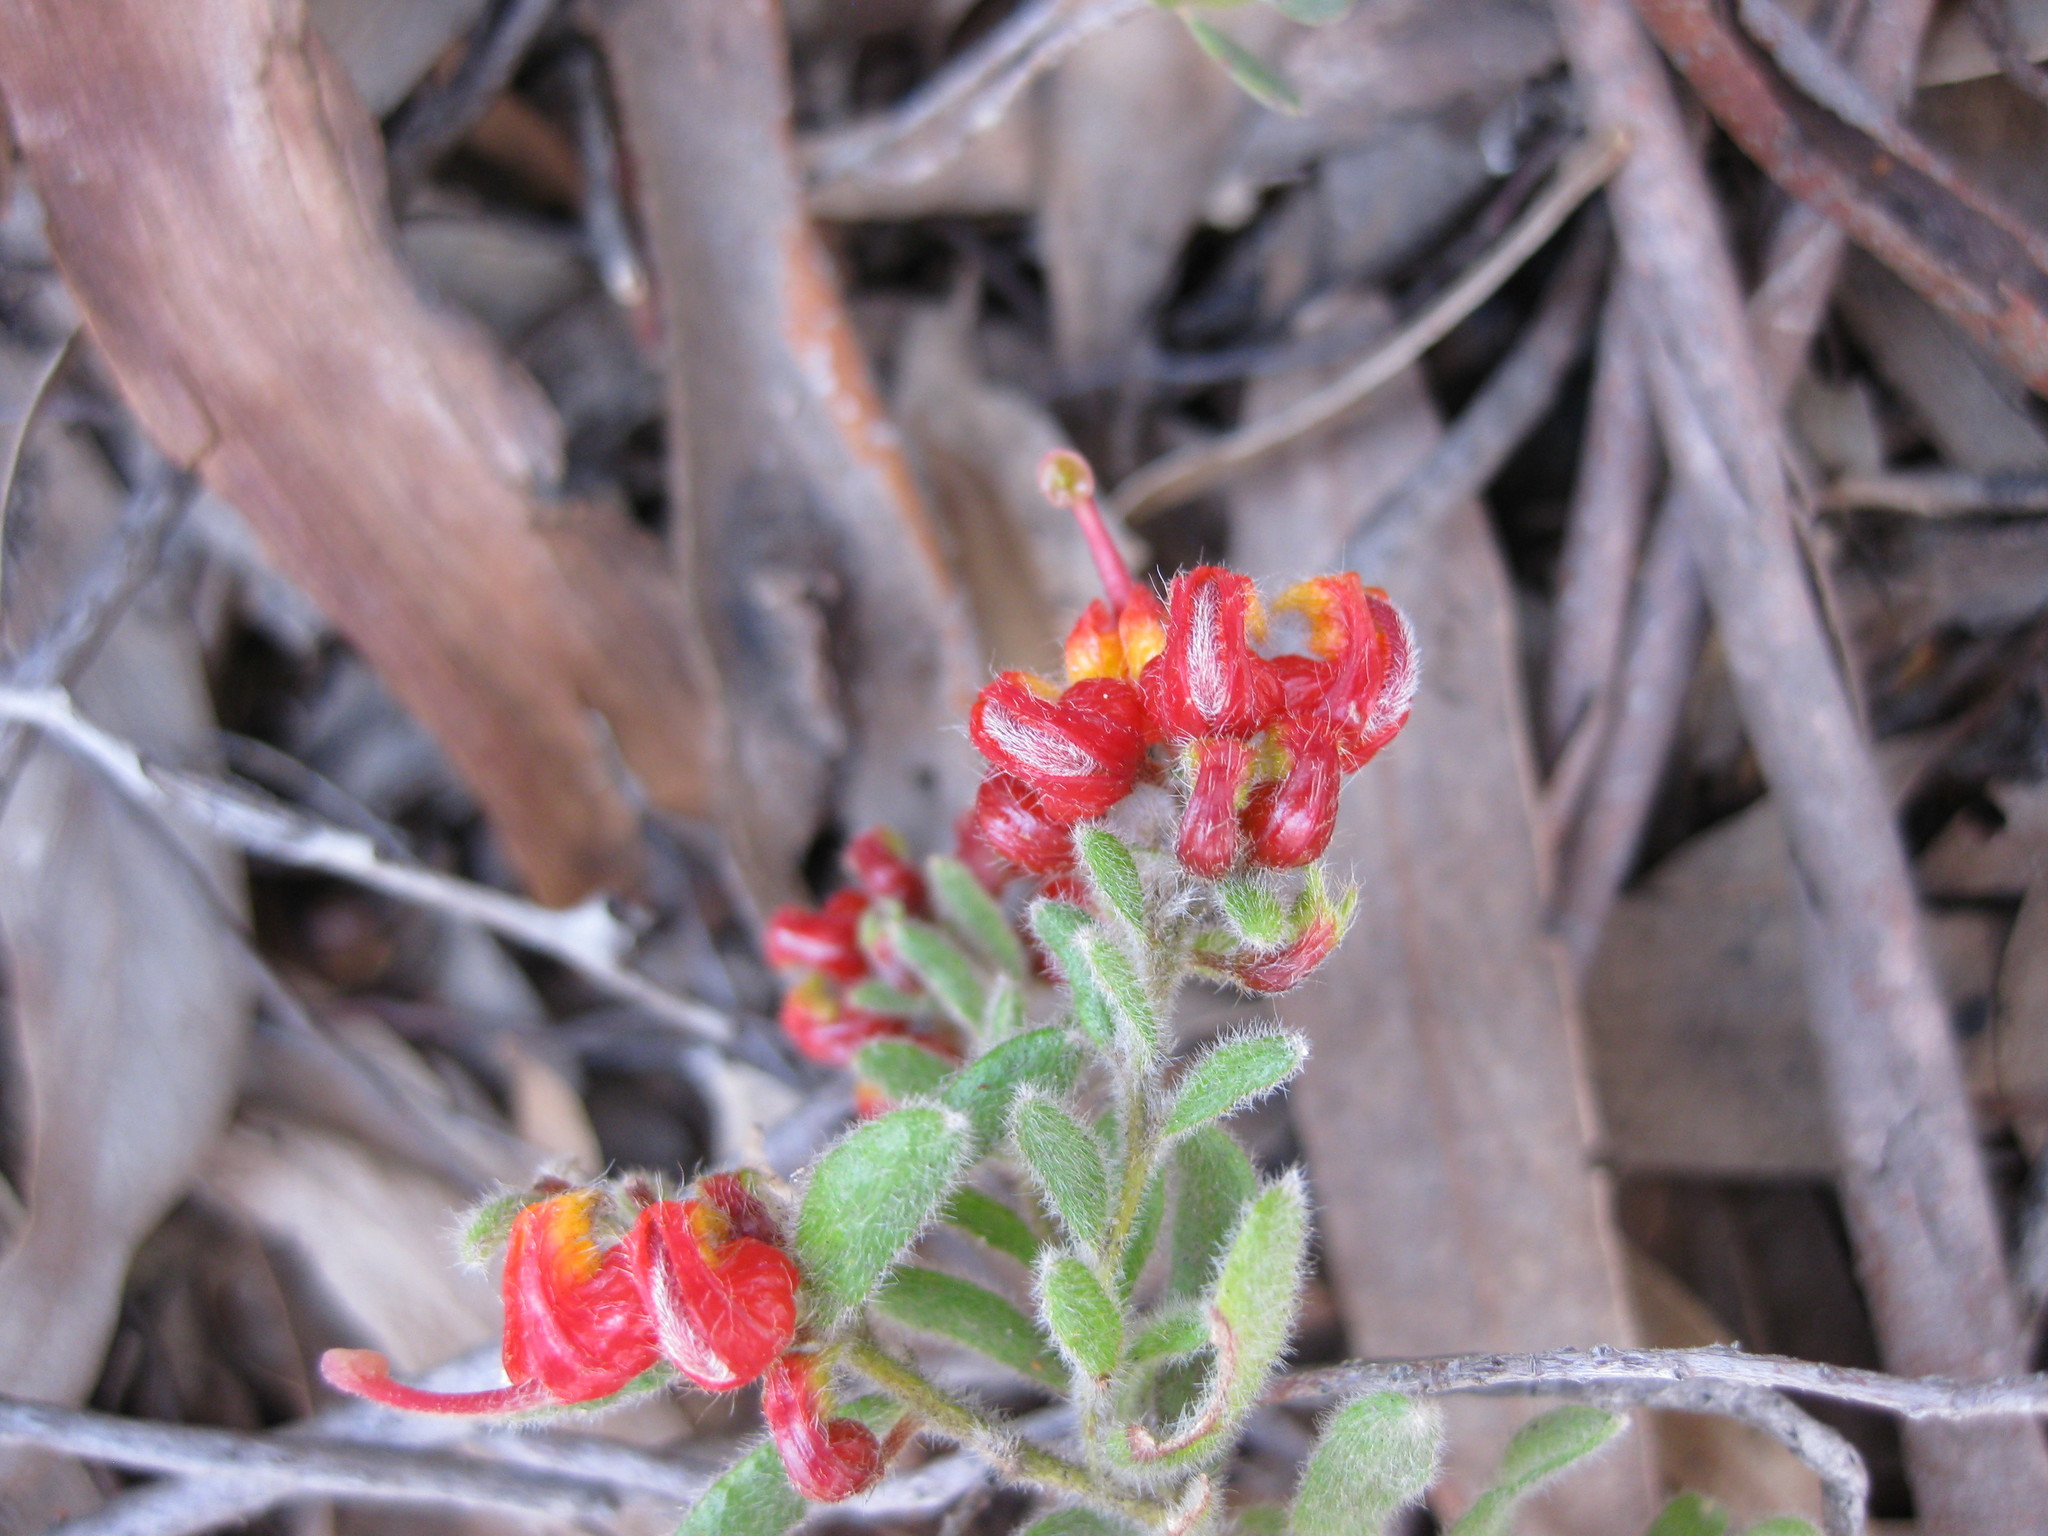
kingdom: Plantae
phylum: Tracheophyta
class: Magnoliopsida
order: Proteales
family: Proteaceae
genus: Grevillea
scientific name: Grevillea alpina
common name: Catclaws grevillea
